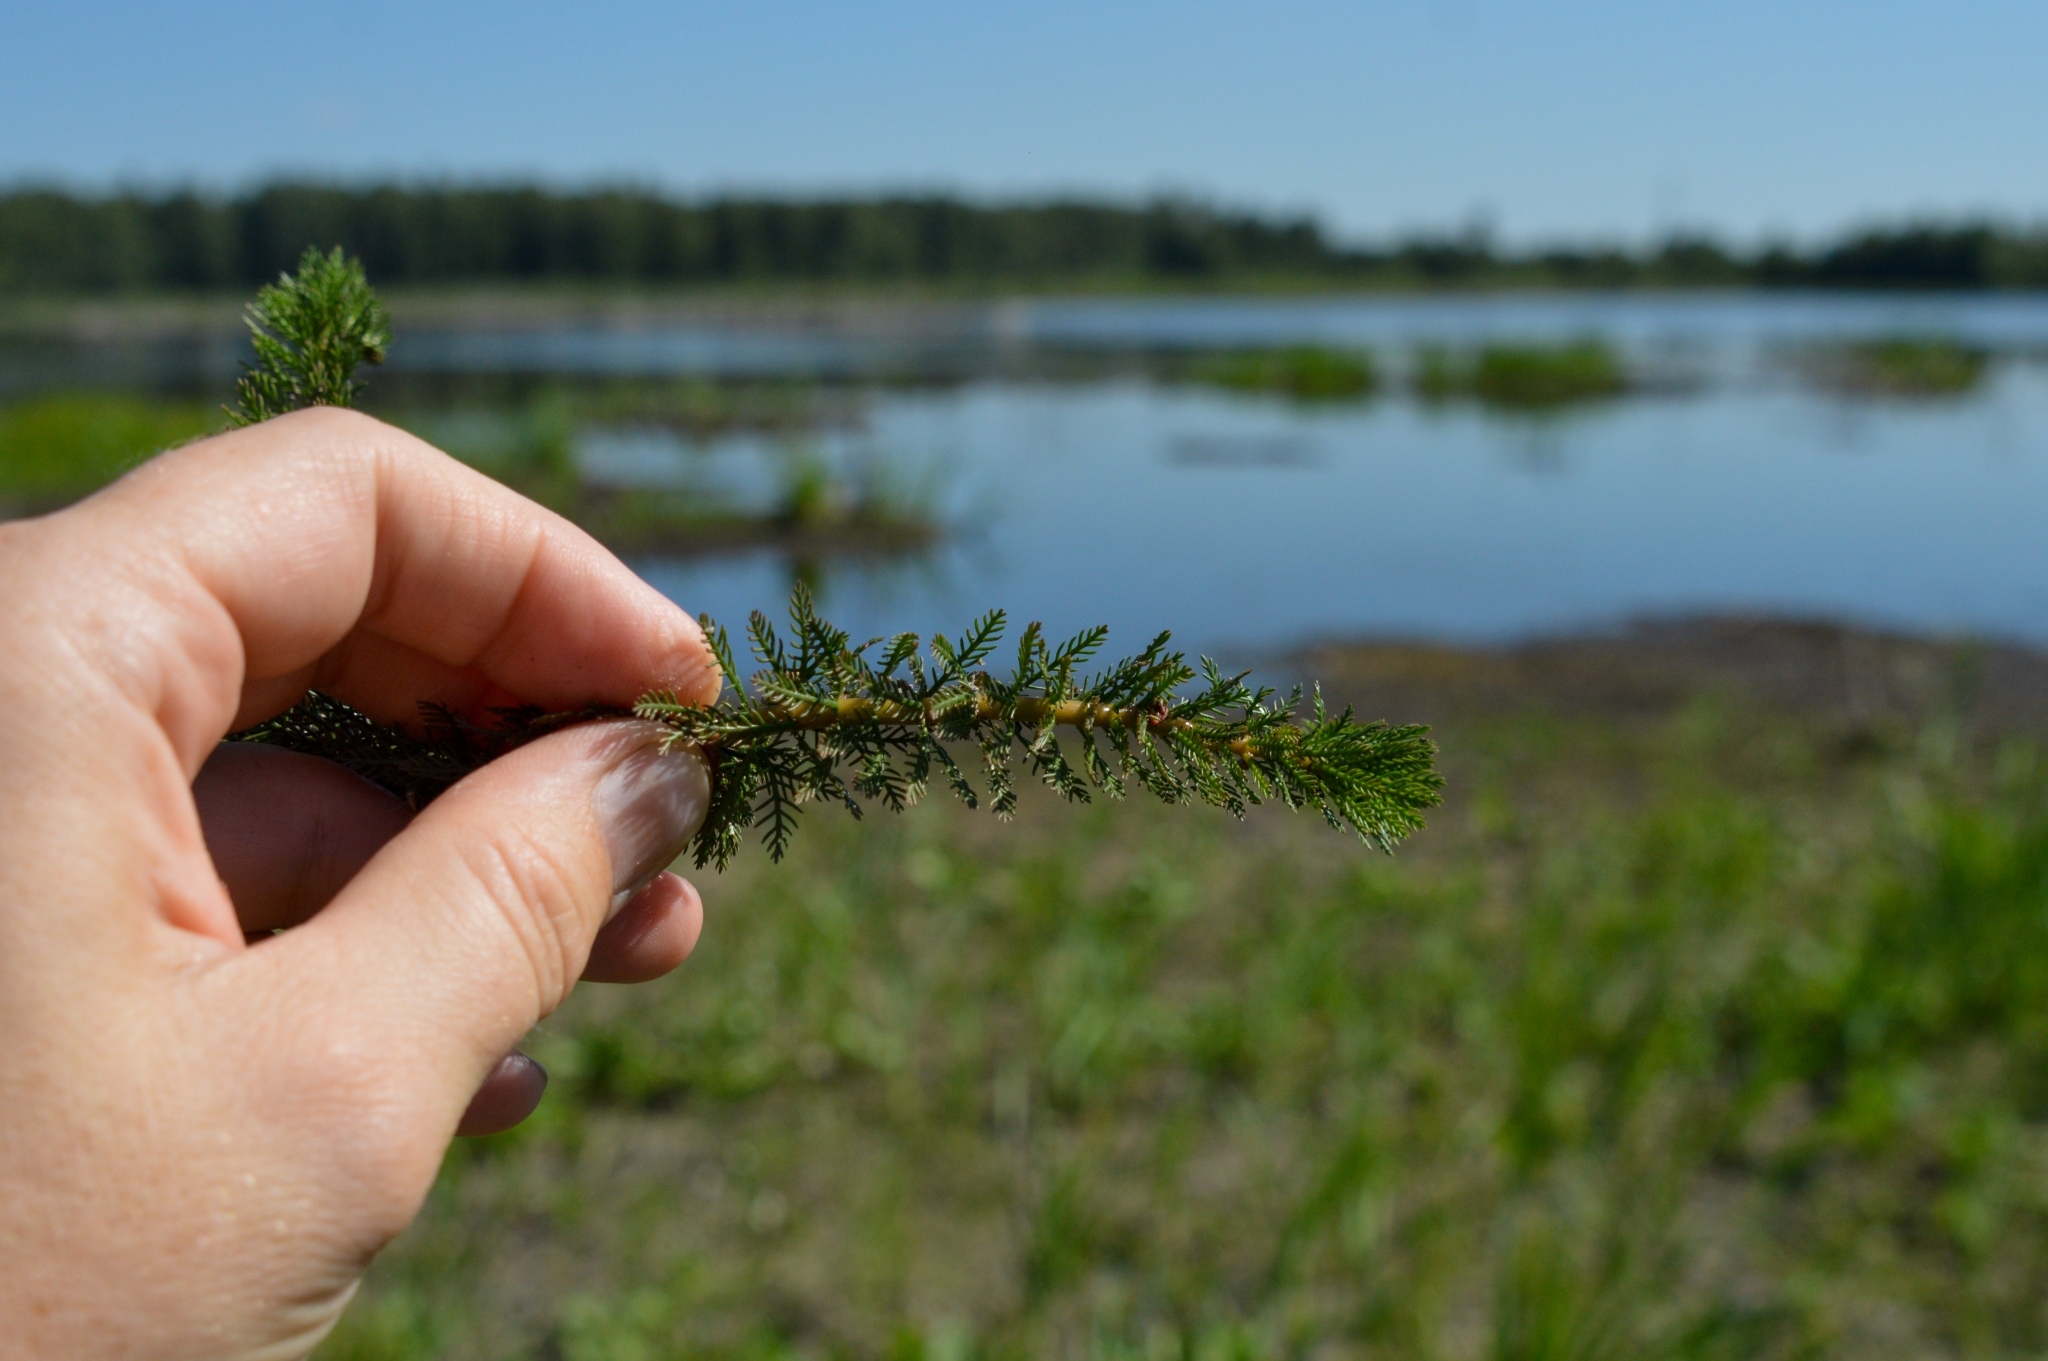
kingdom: Plantae
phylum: Tracheophyta
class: Magnoliopsida
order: Saxifragales
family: Haloragaceae
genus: Myriophyllum
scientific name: Myriophyllum verticillatum
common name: Whorled water-milfoil
